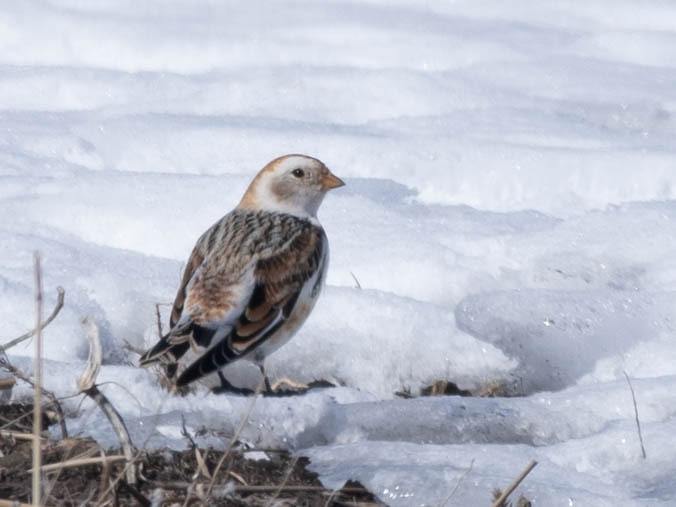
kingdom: Animalia
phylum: Chordata
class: Aves
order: Passeriformes
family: Calcariidae
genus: Plectrophenax
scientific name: Plectrophenax nivalis
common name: Snow bunting
